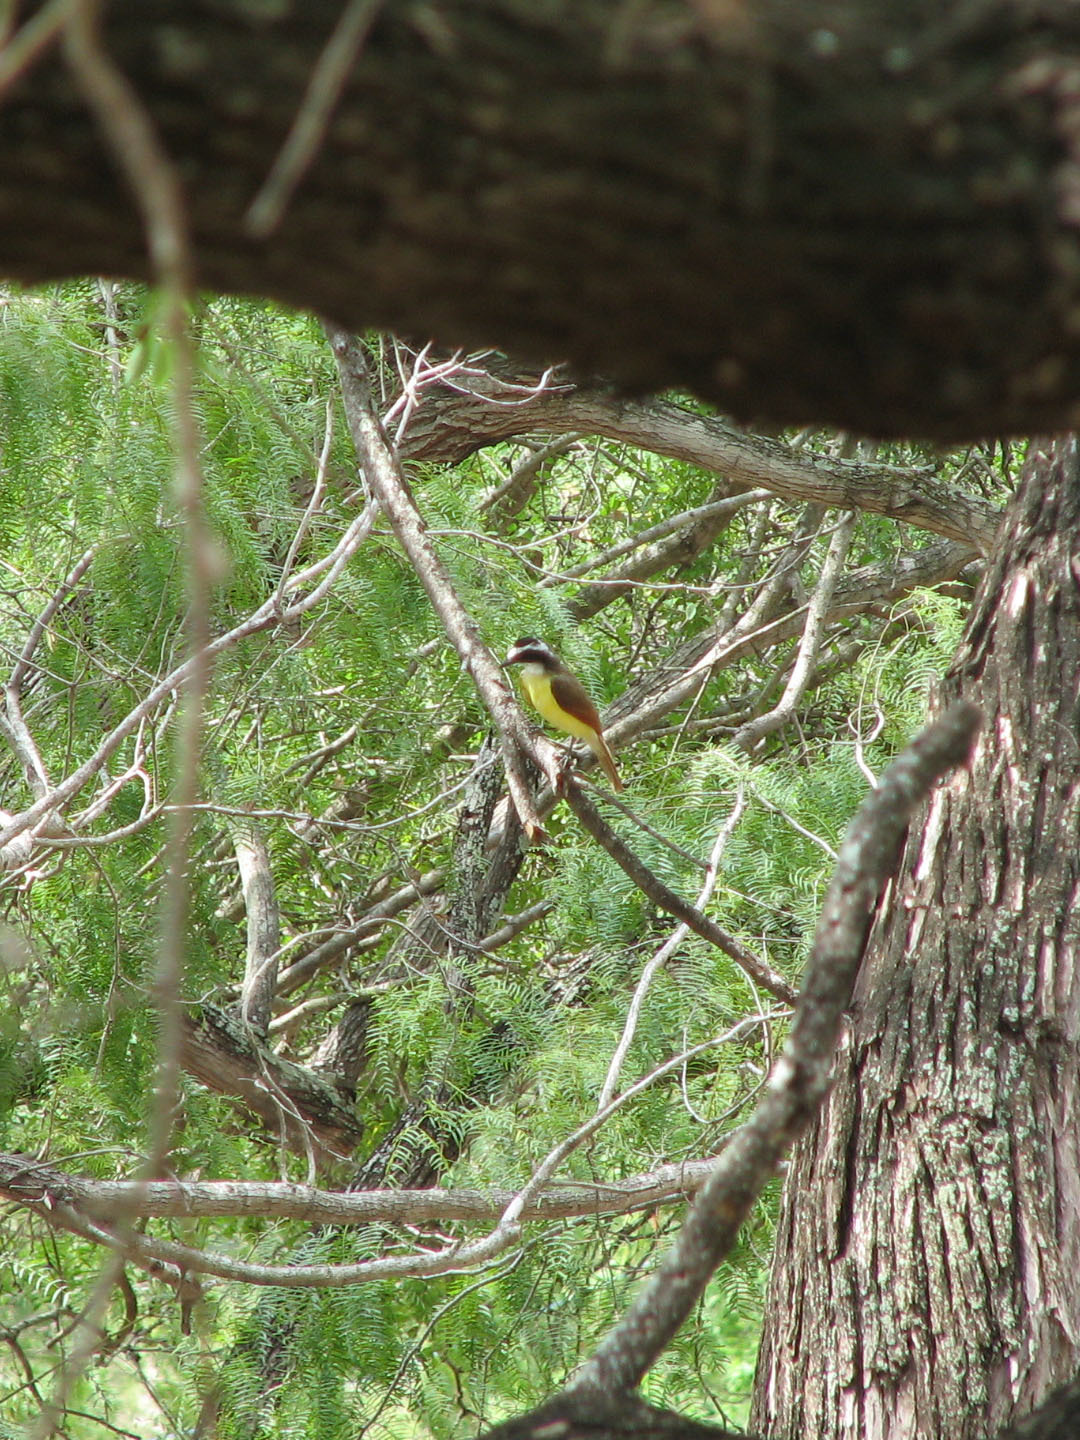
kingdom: Animalia
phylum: Chordata
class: Aves
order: Passeriformes
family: Tyrannidae
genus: Pitangus
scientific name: Pitangus sulphuratus
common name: Great kiskadee
